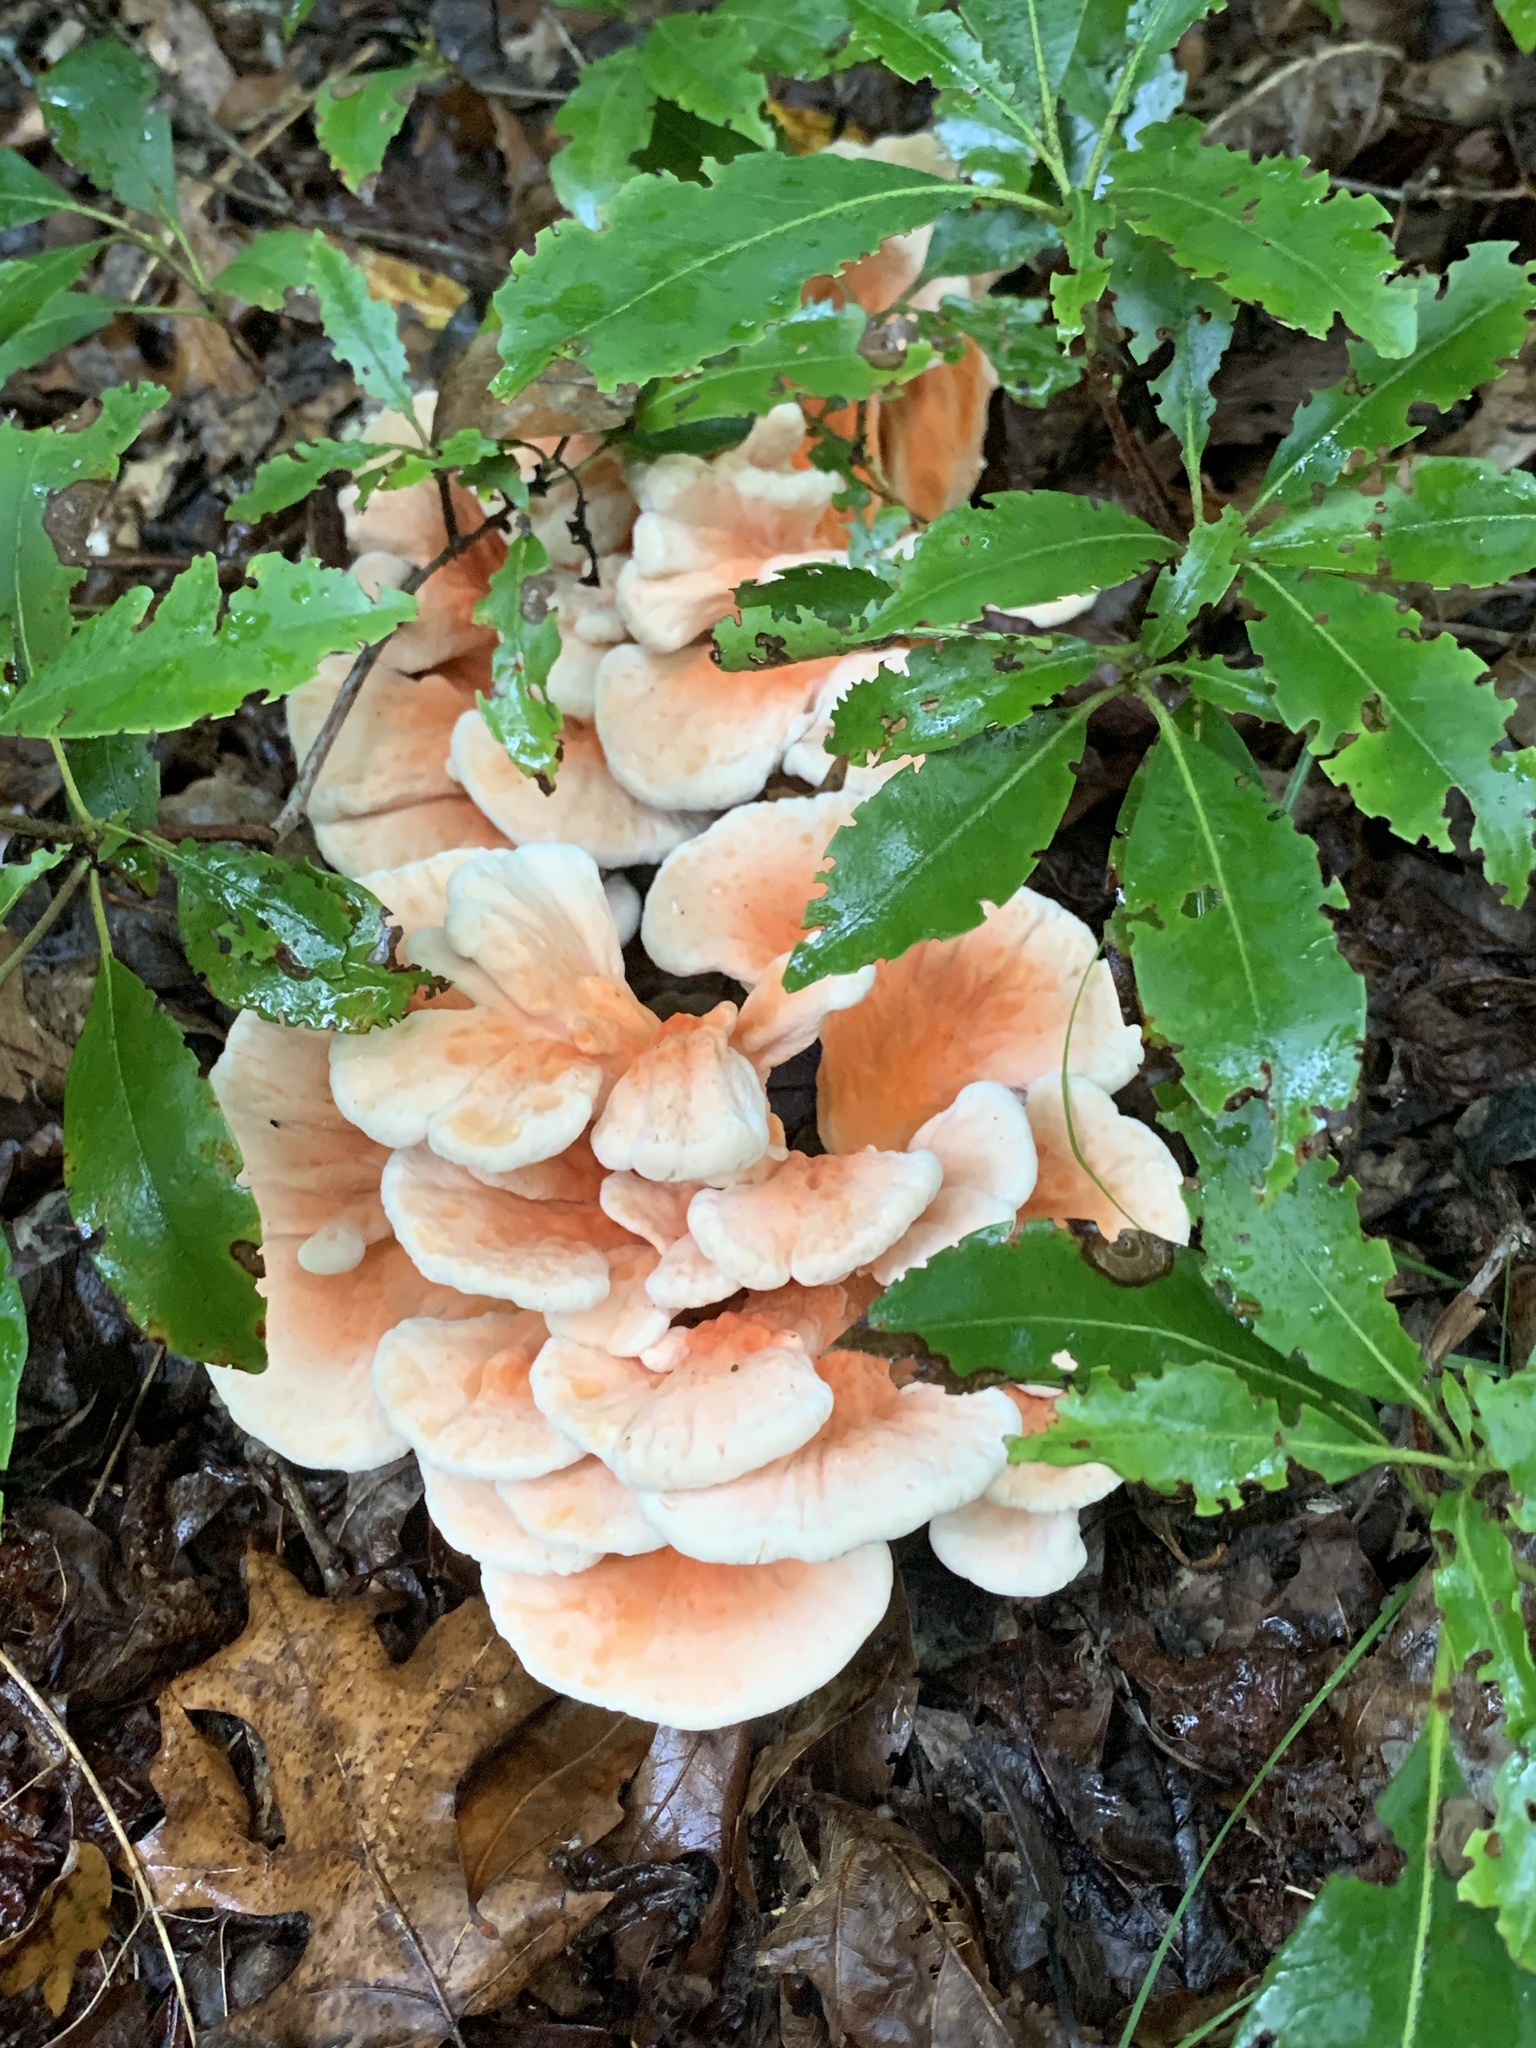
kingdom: Fungi
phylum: Basidiomycota
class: Agaricomycetes
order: Polyporales
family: Laetiporaceae
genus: Laetiporus
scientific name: Laetiporus sulphureus
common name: Chicken of the woods
